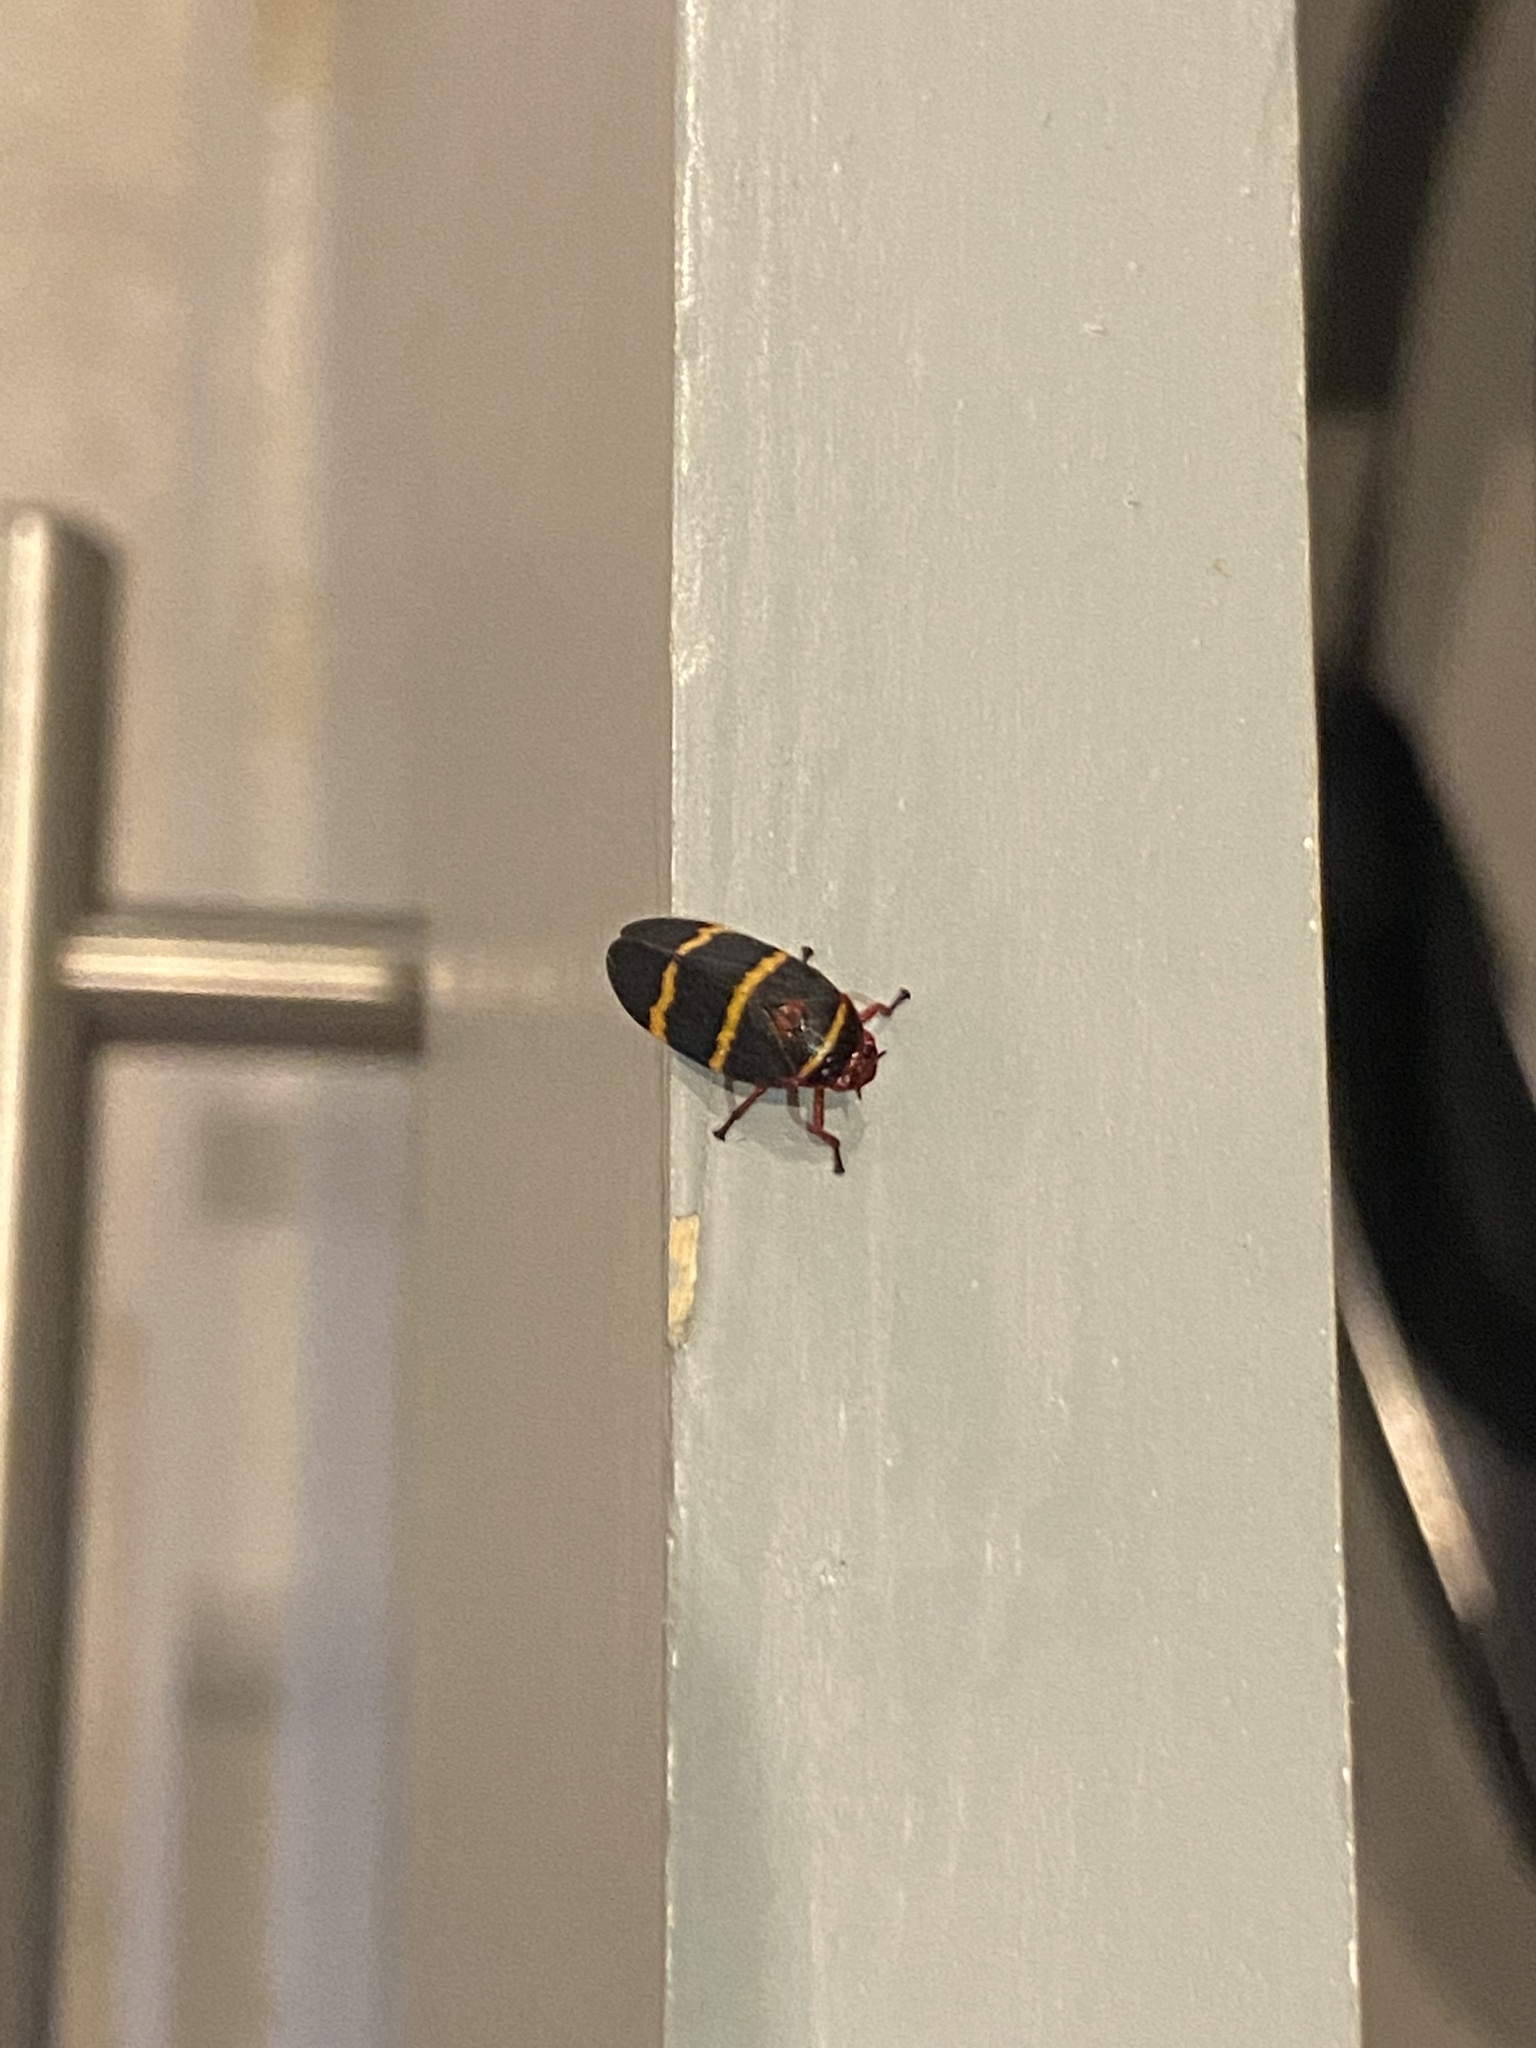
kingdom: Animalia
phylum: Arthropoda
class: Insecta
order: Hemiptera
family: Cercopidae
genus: Prosapia
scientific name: Prosapia bicincta
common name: Twolined spittlebug
